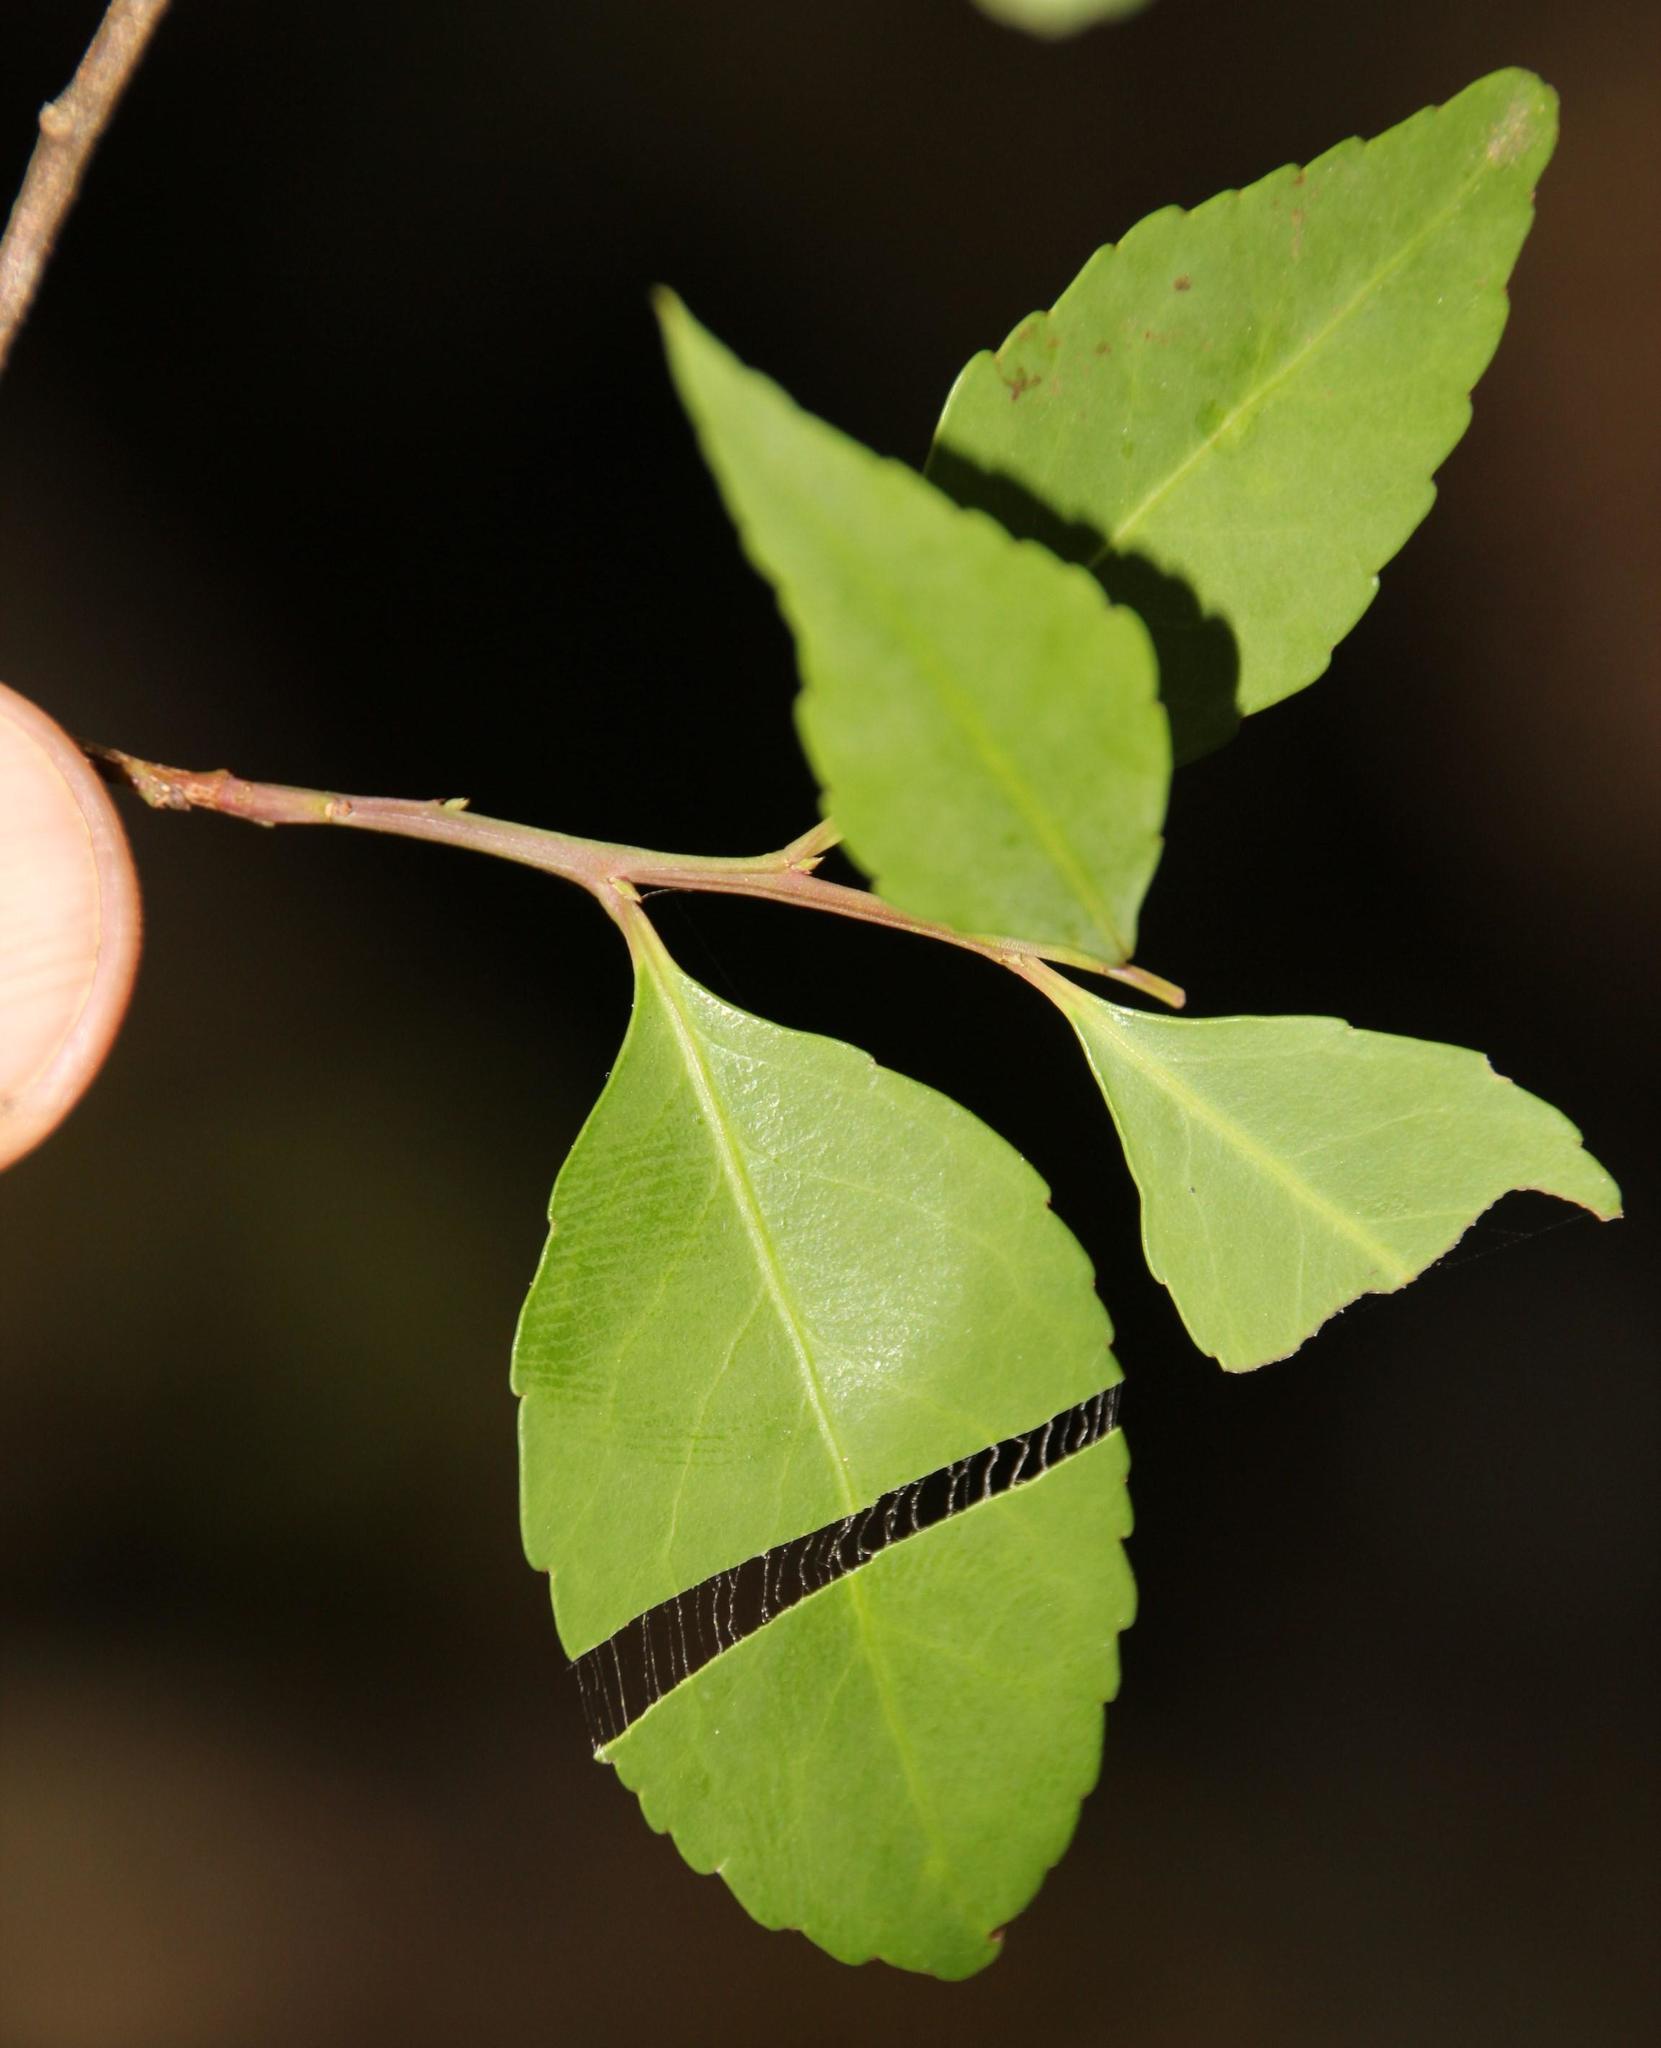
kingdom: Plantae
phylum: Tracheophyta
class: Magnoliopsida
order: Celastrales
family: Celastraceae
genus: Gymnosporia
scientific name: Gymnosporia acuminata
